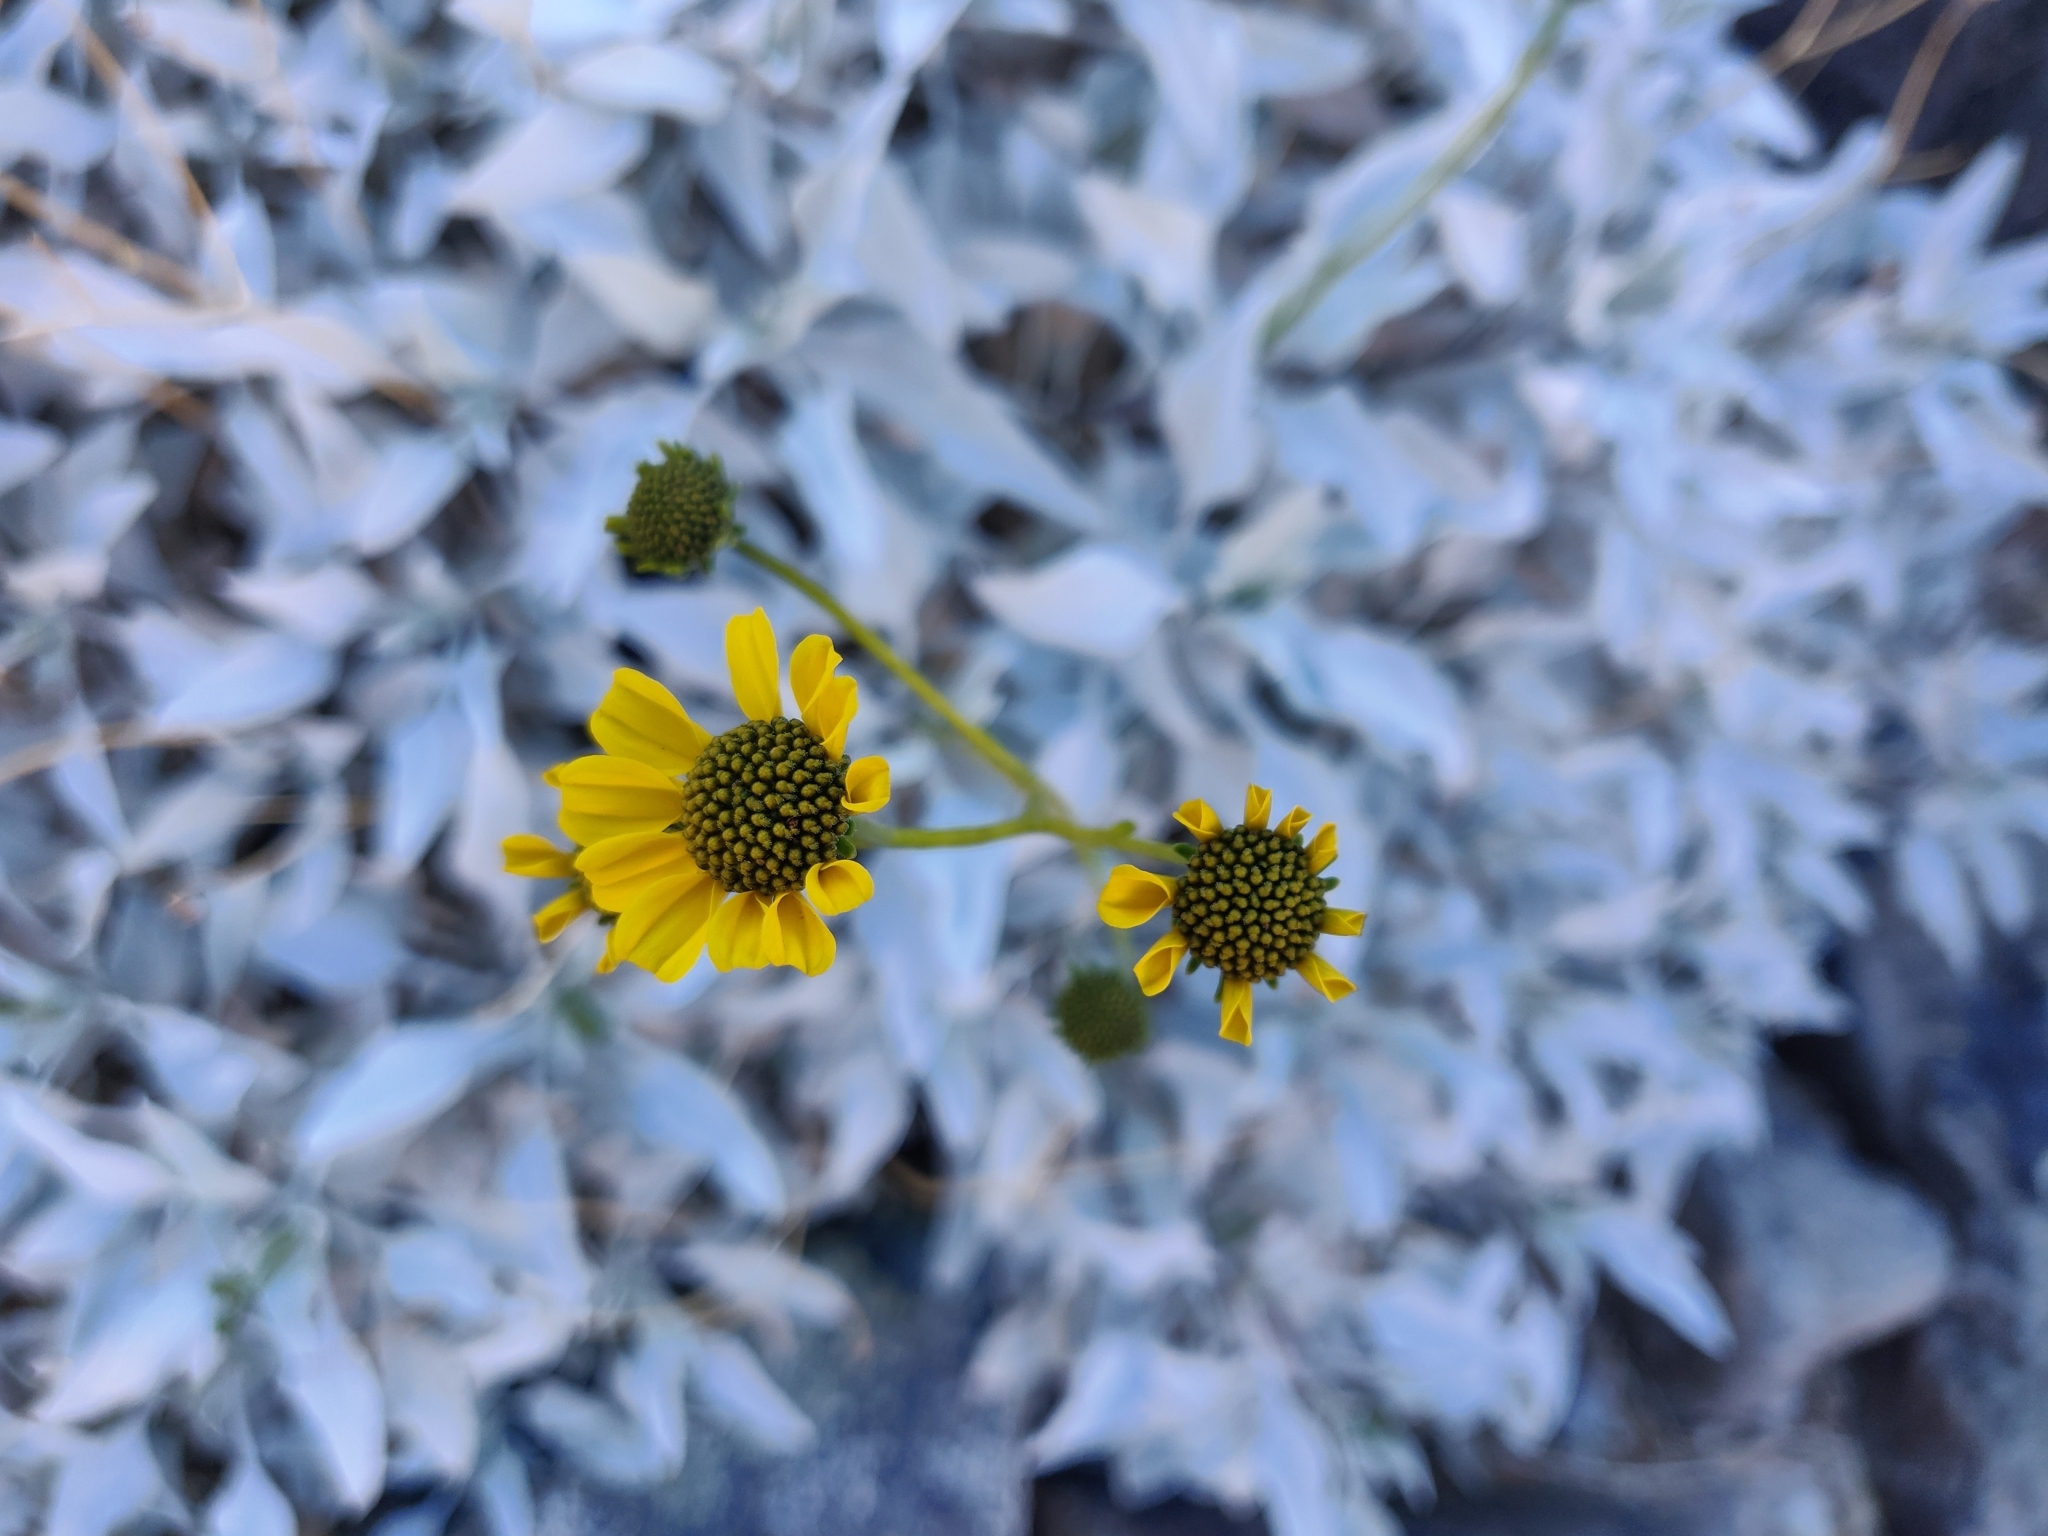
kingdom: Plantae
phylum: Tracheophyta
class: Magnoliopsida
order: Asterales
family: Asteraceae
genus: Encelia
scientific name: Encelia farinosa
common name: Brittlebush
